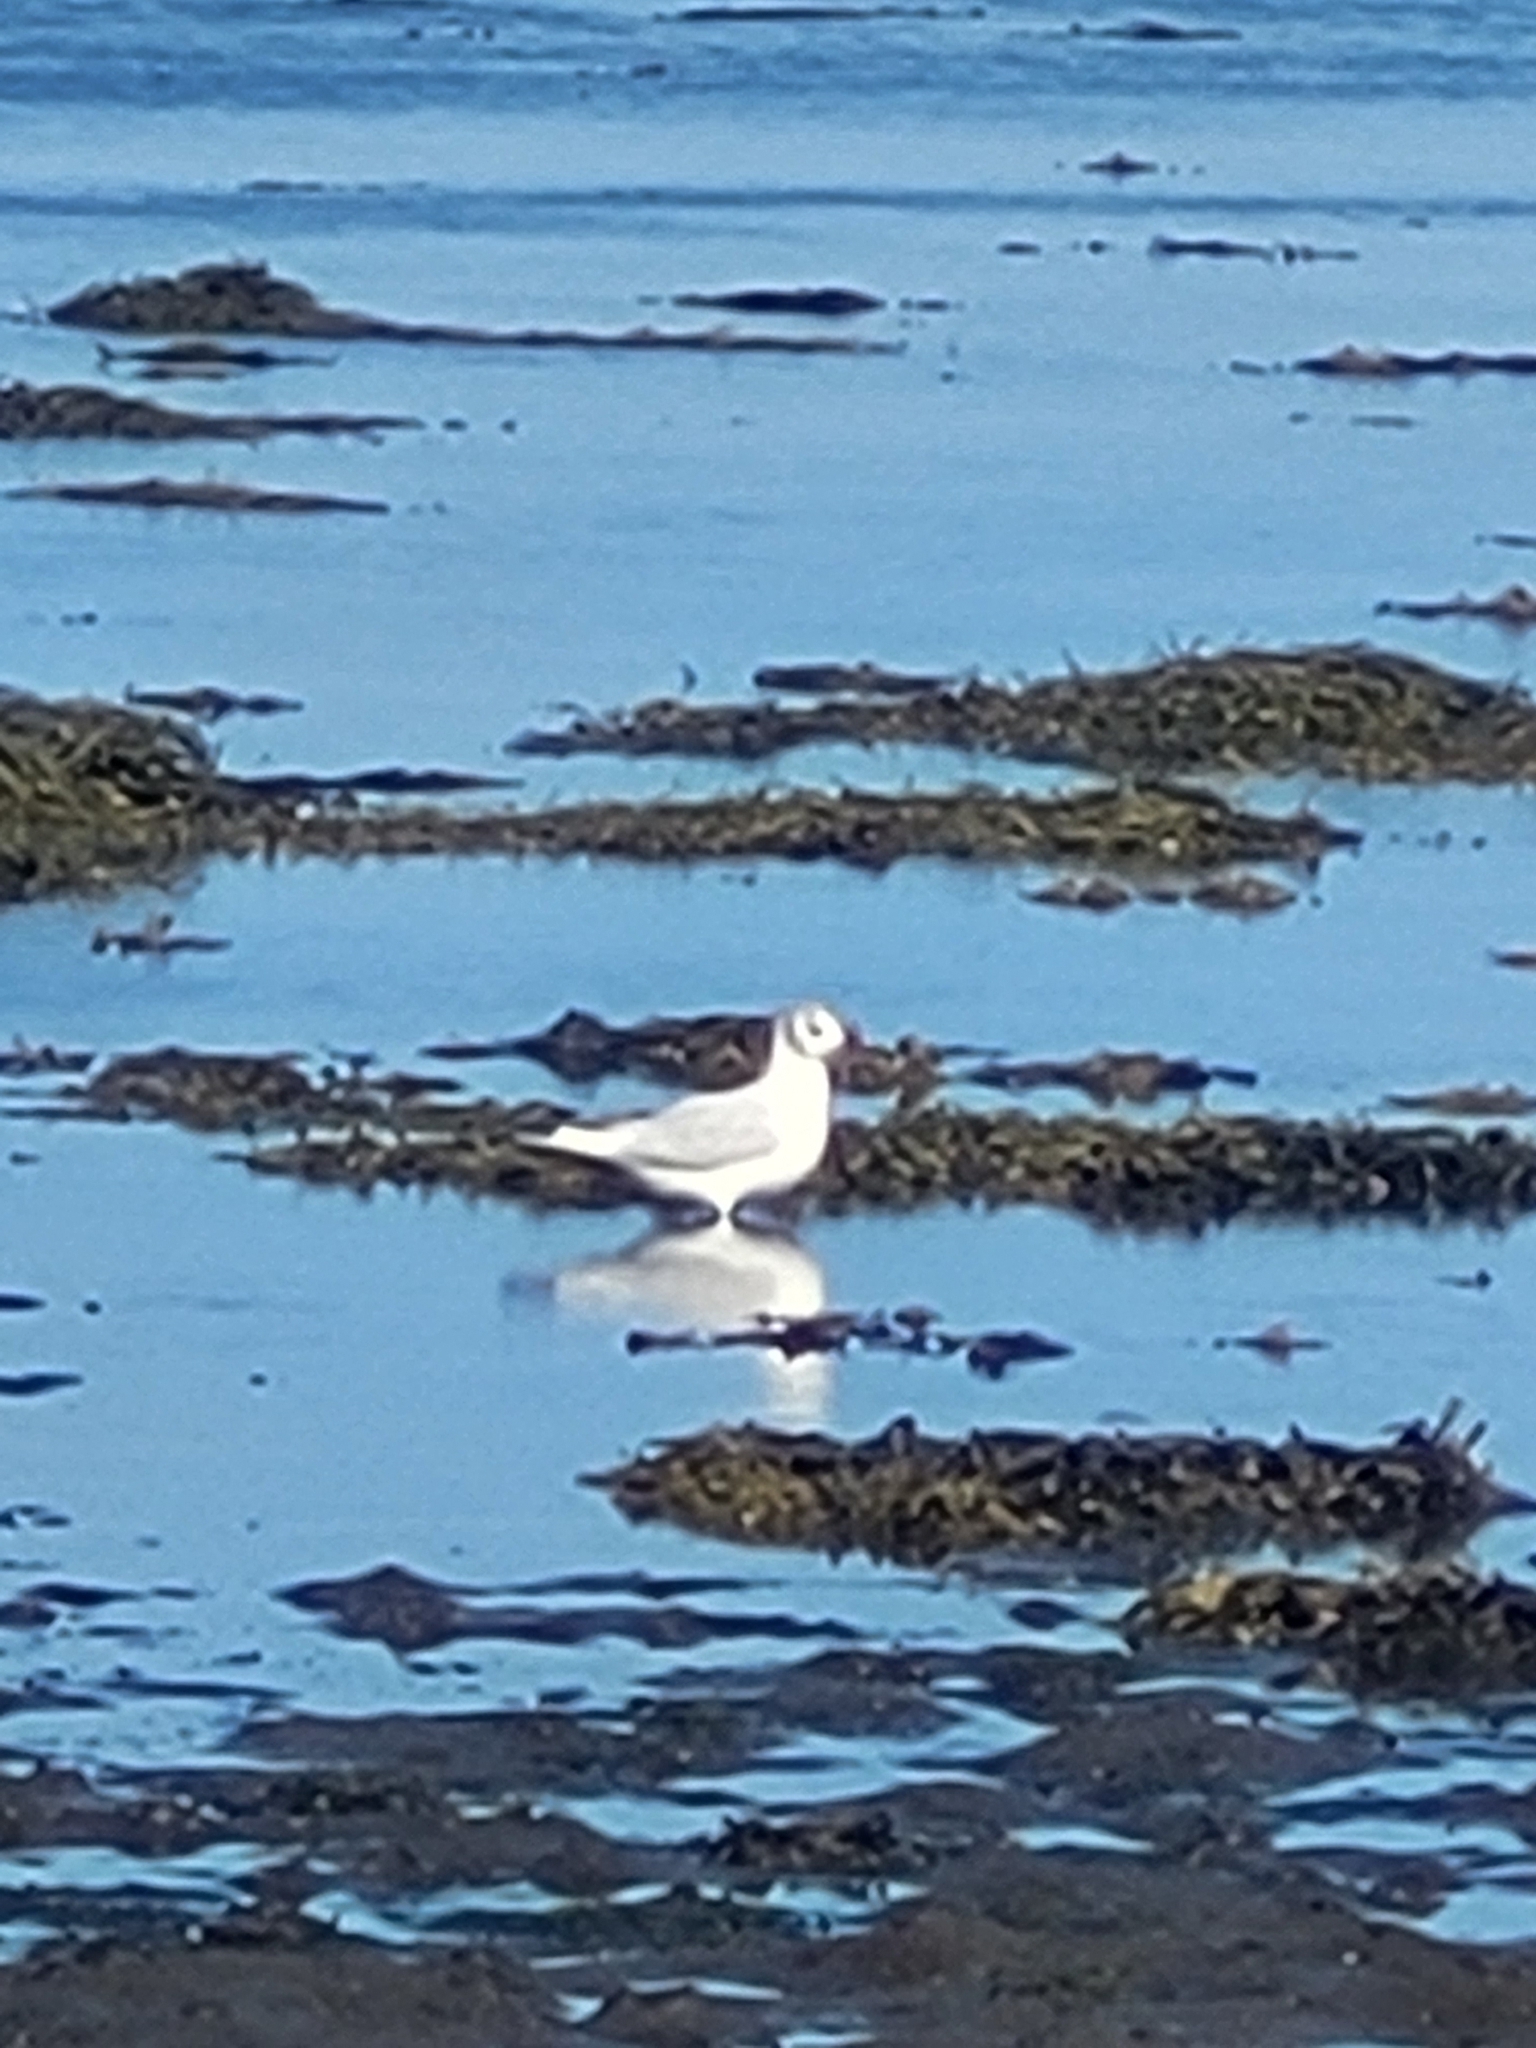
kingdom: Animalia
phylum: Chordata
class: Aves
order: Charadriiformes
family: Laridae
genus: Chroicocephalus
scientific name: Chroicocephalus ridibundus
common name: Black-headed gull
